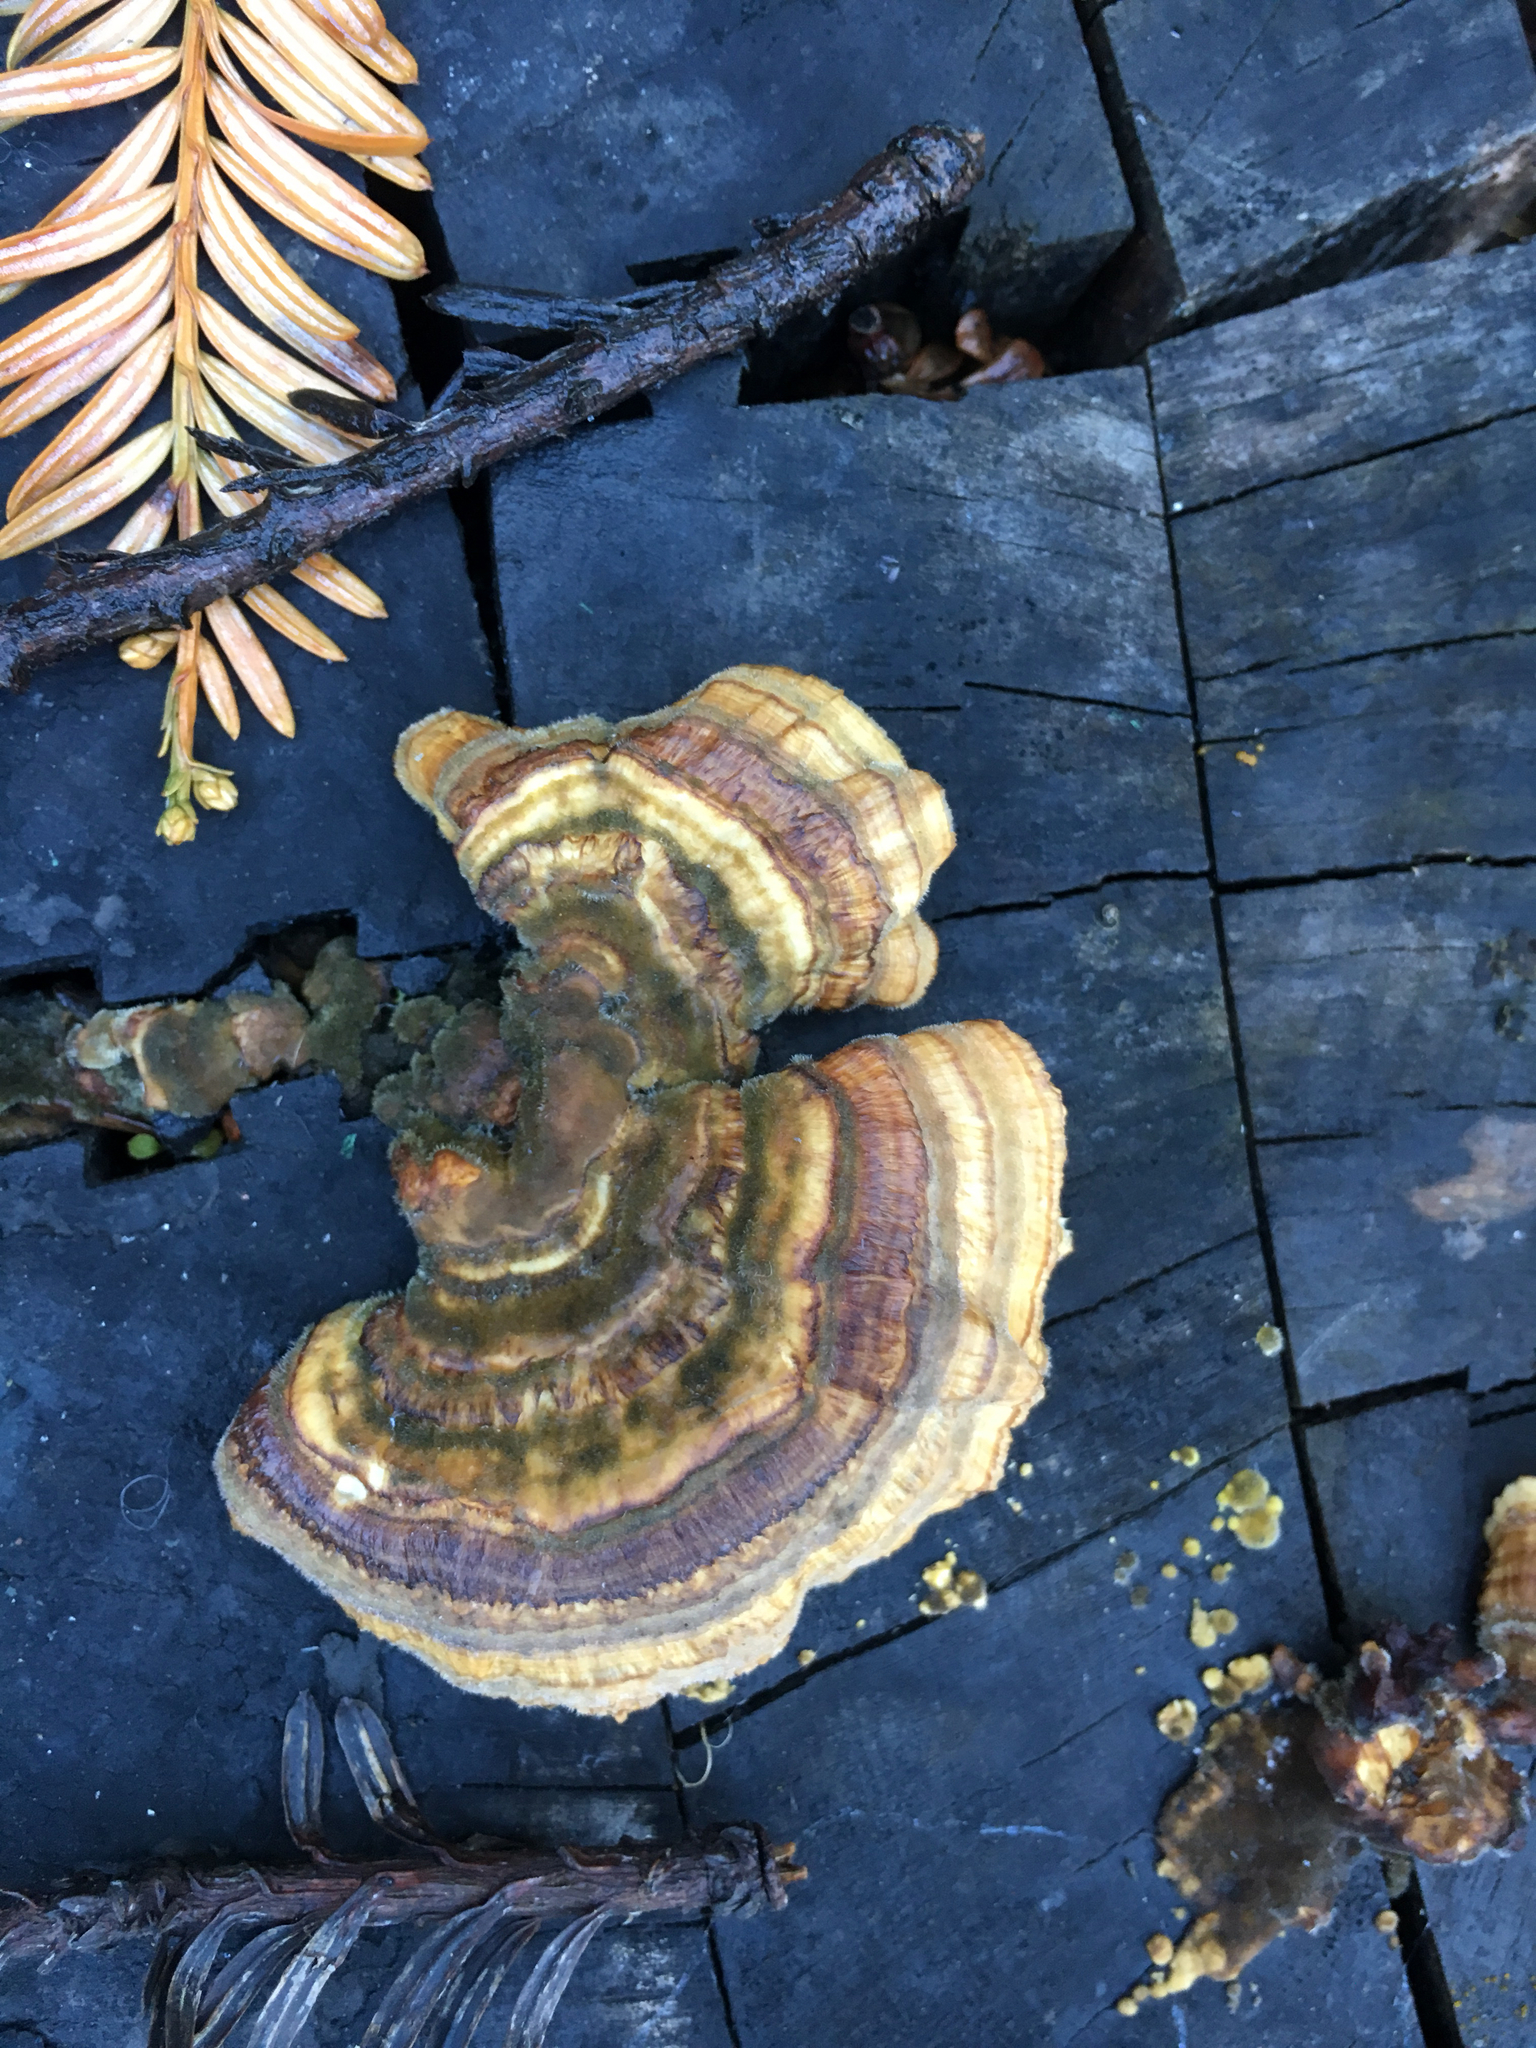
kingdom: Fungi
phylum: Basidiomycota
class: Agaricomycetes
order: Russulales
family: Stereaceae
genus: Stereum
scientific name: Stereum hirsutum
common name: Hairy curtain crust
